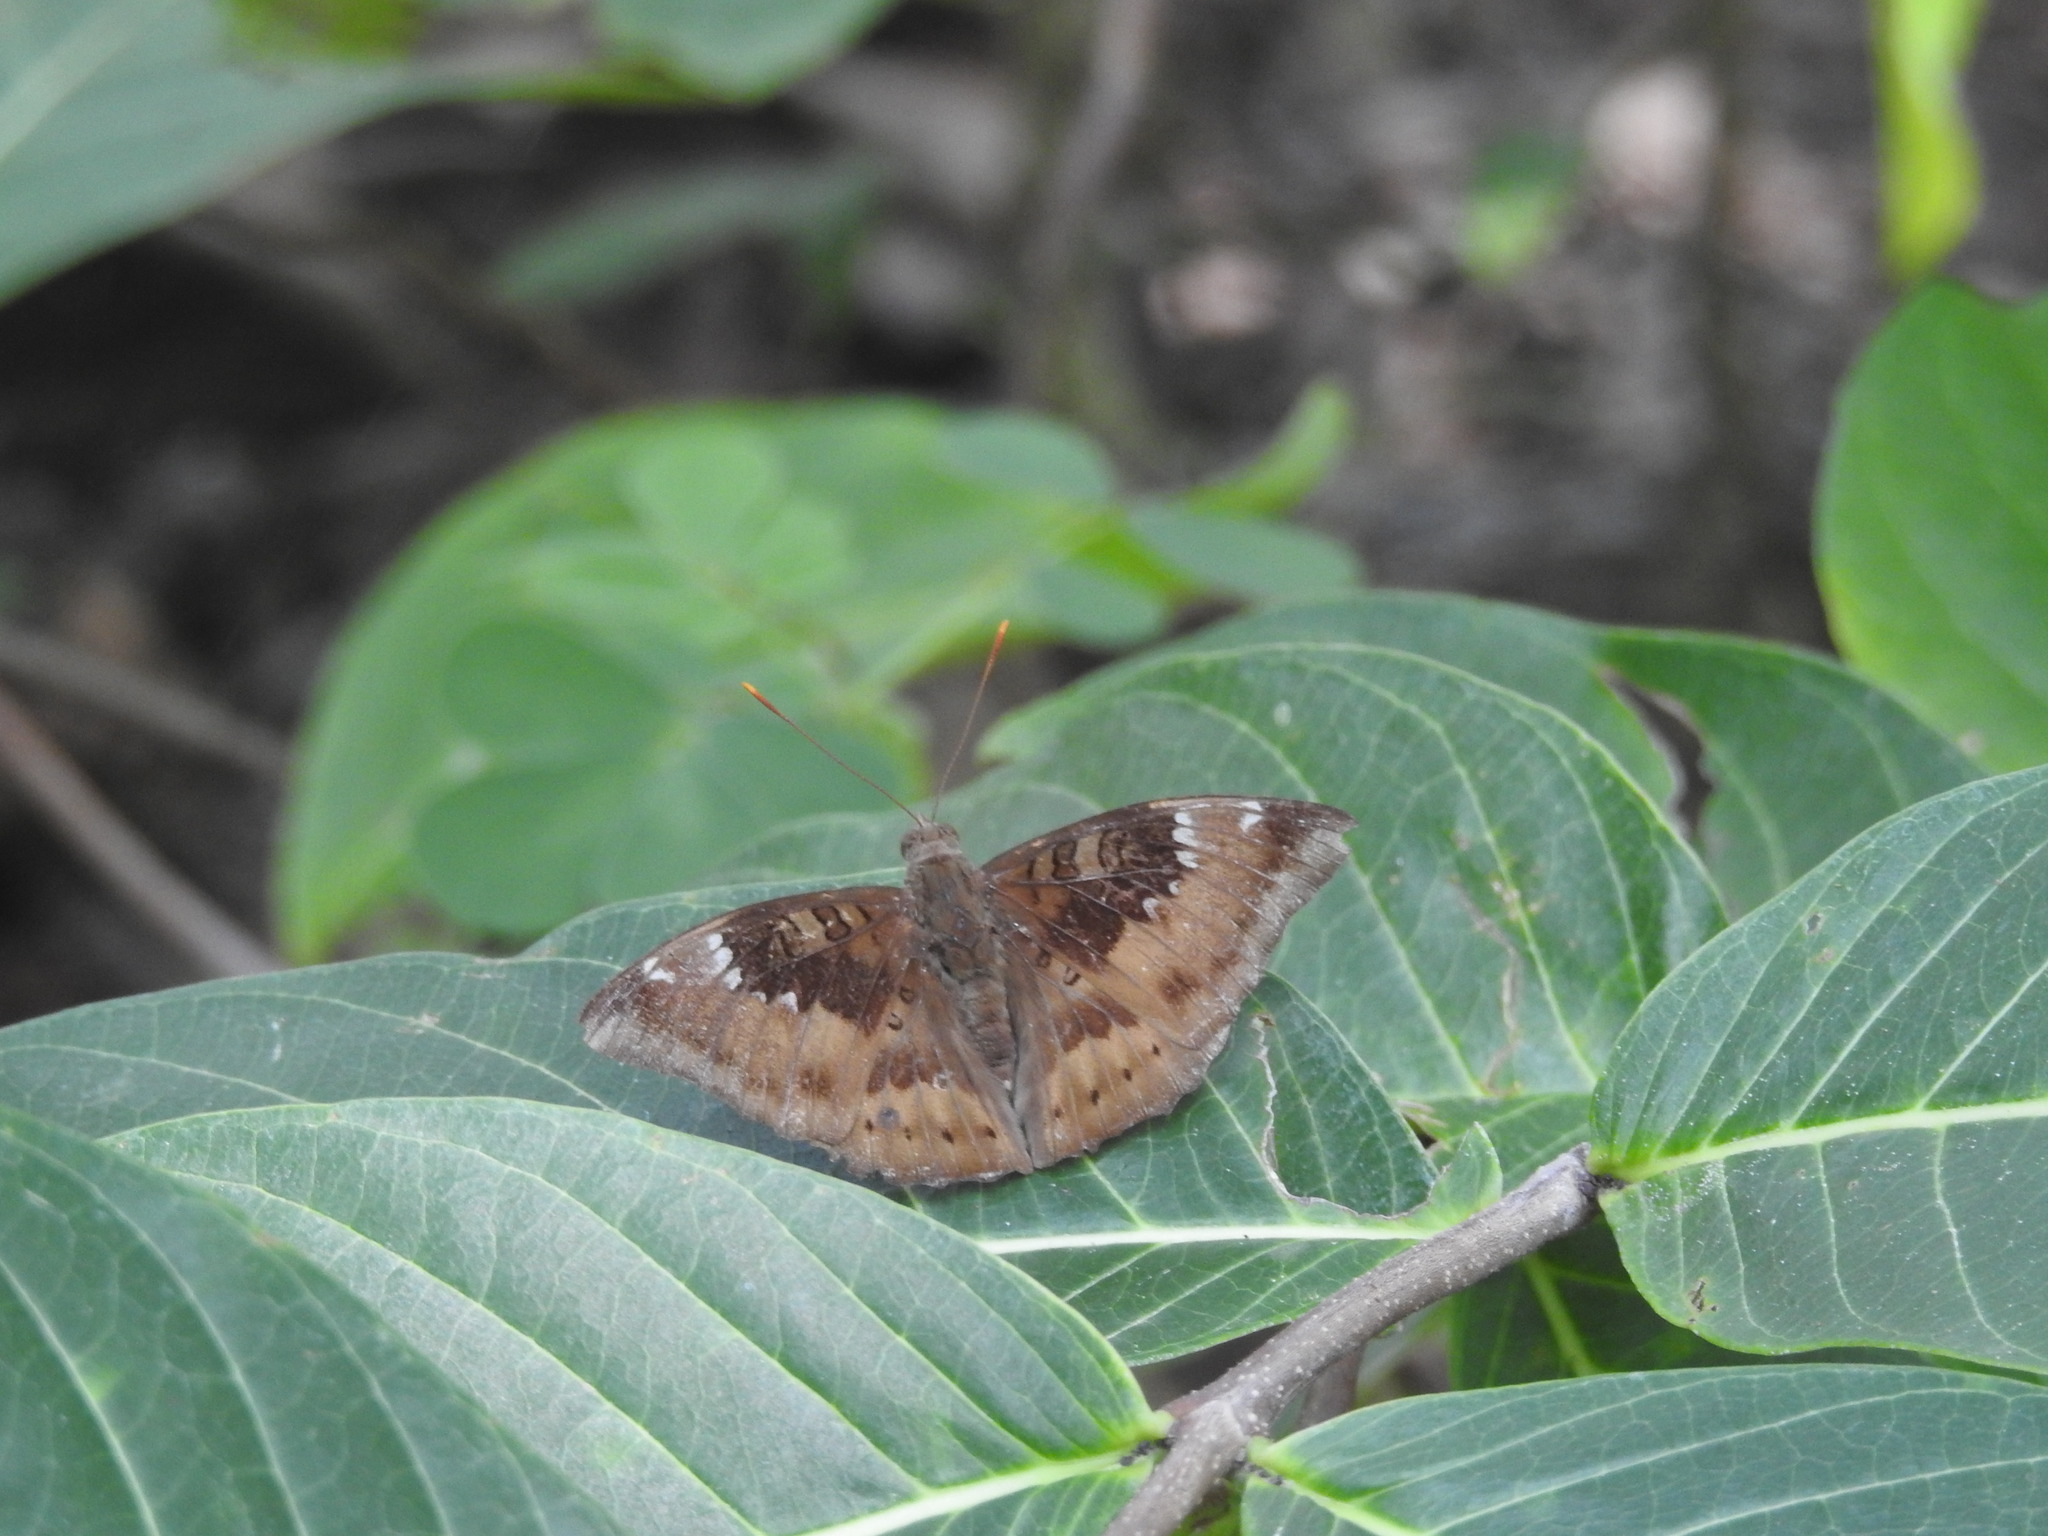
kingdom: Animalia
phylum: Arthropoda
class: Insecta
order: Lepidoptera
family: Nymphalidae
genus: Euthalia
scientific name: Euthalia aconthea
